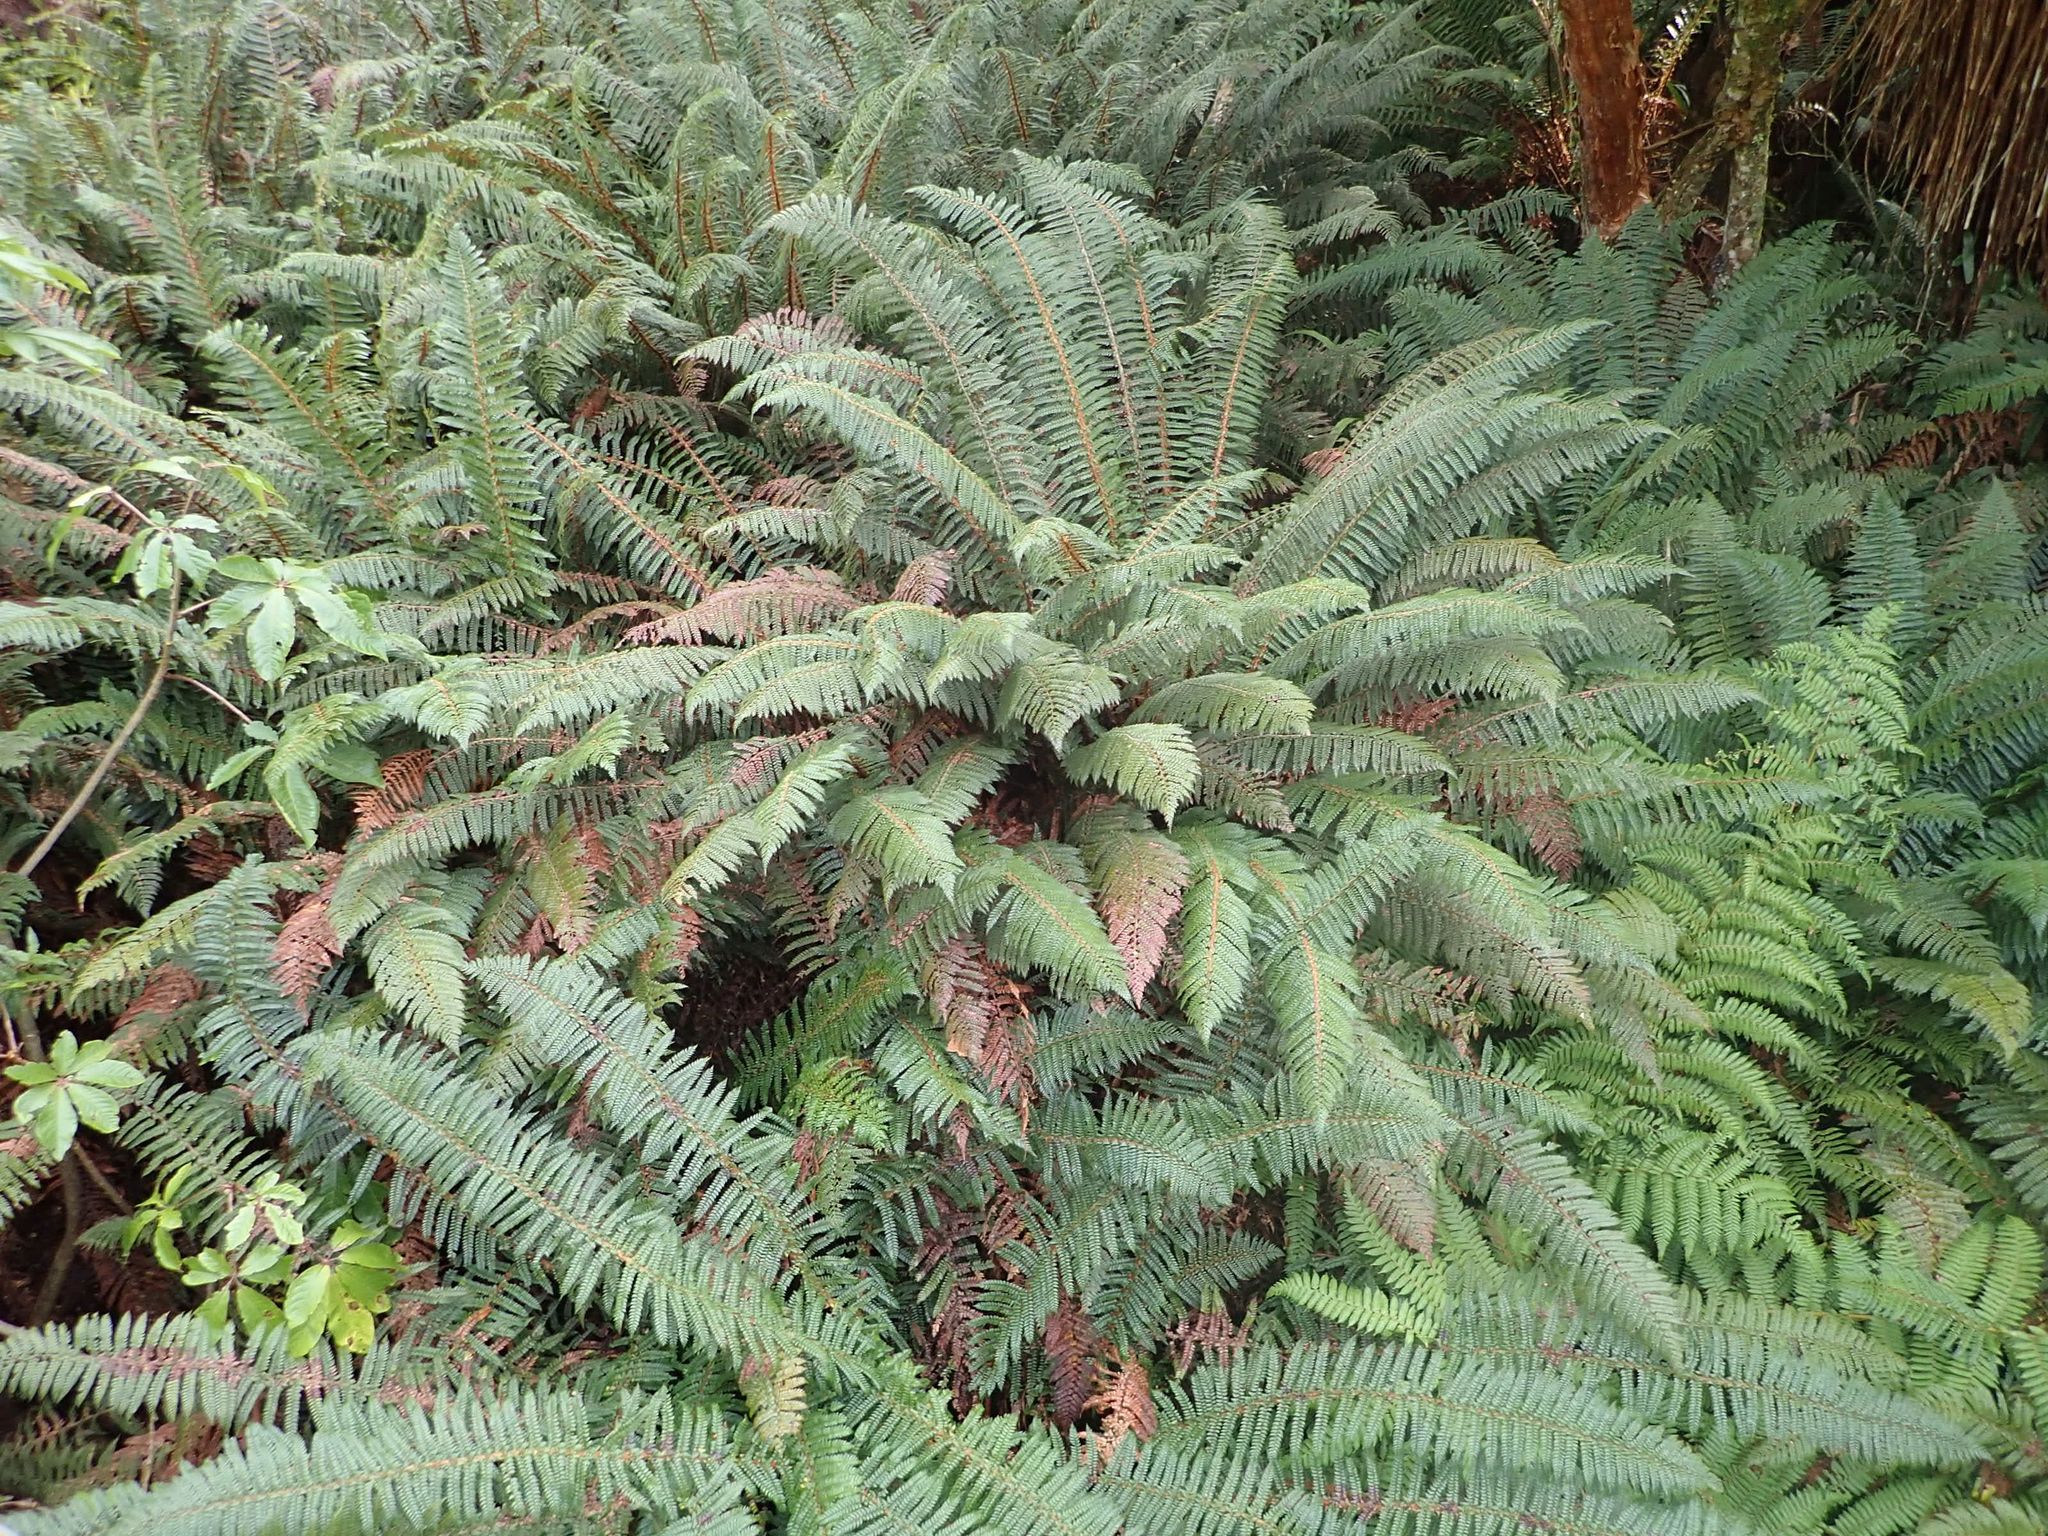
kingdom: Plantae
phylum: Tracheophyta
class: Polypodiopsida
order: Polypodiales
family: Dryopteridaceae
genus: Polystichum
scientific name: Polystichum vestitum
